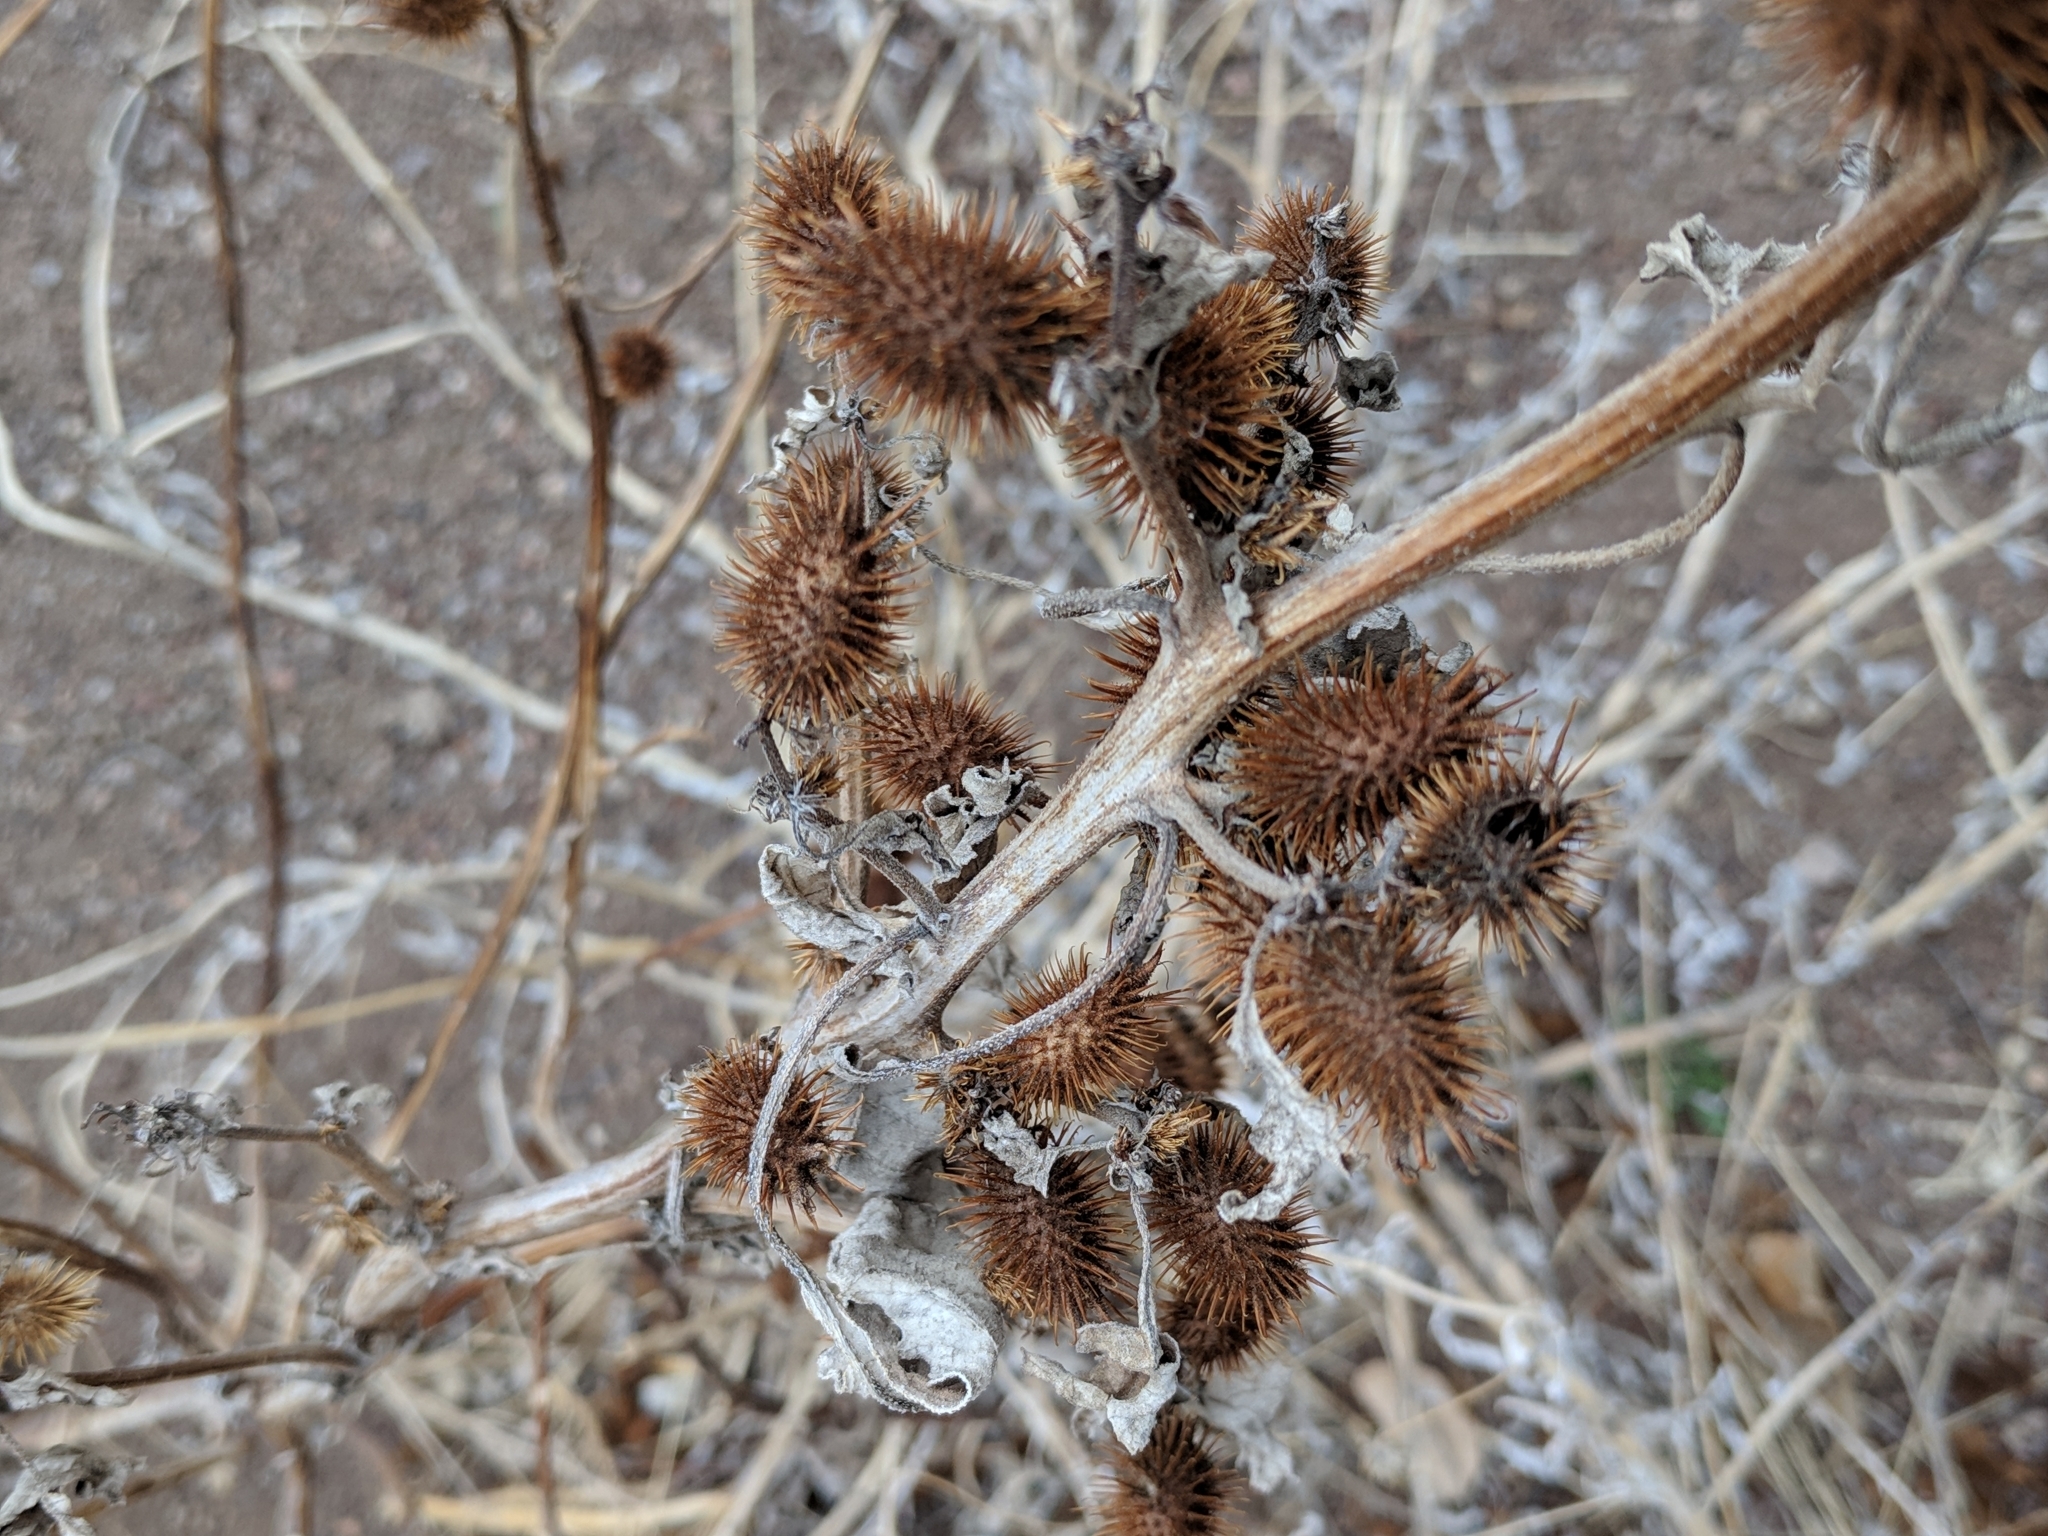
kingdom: Plantae
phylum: Tracheophyta
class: Magnoliopsida
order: Asterales
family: Asteraceae
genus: Xanthium
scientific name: Xanthium strumarium
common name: Rough cocklebur
